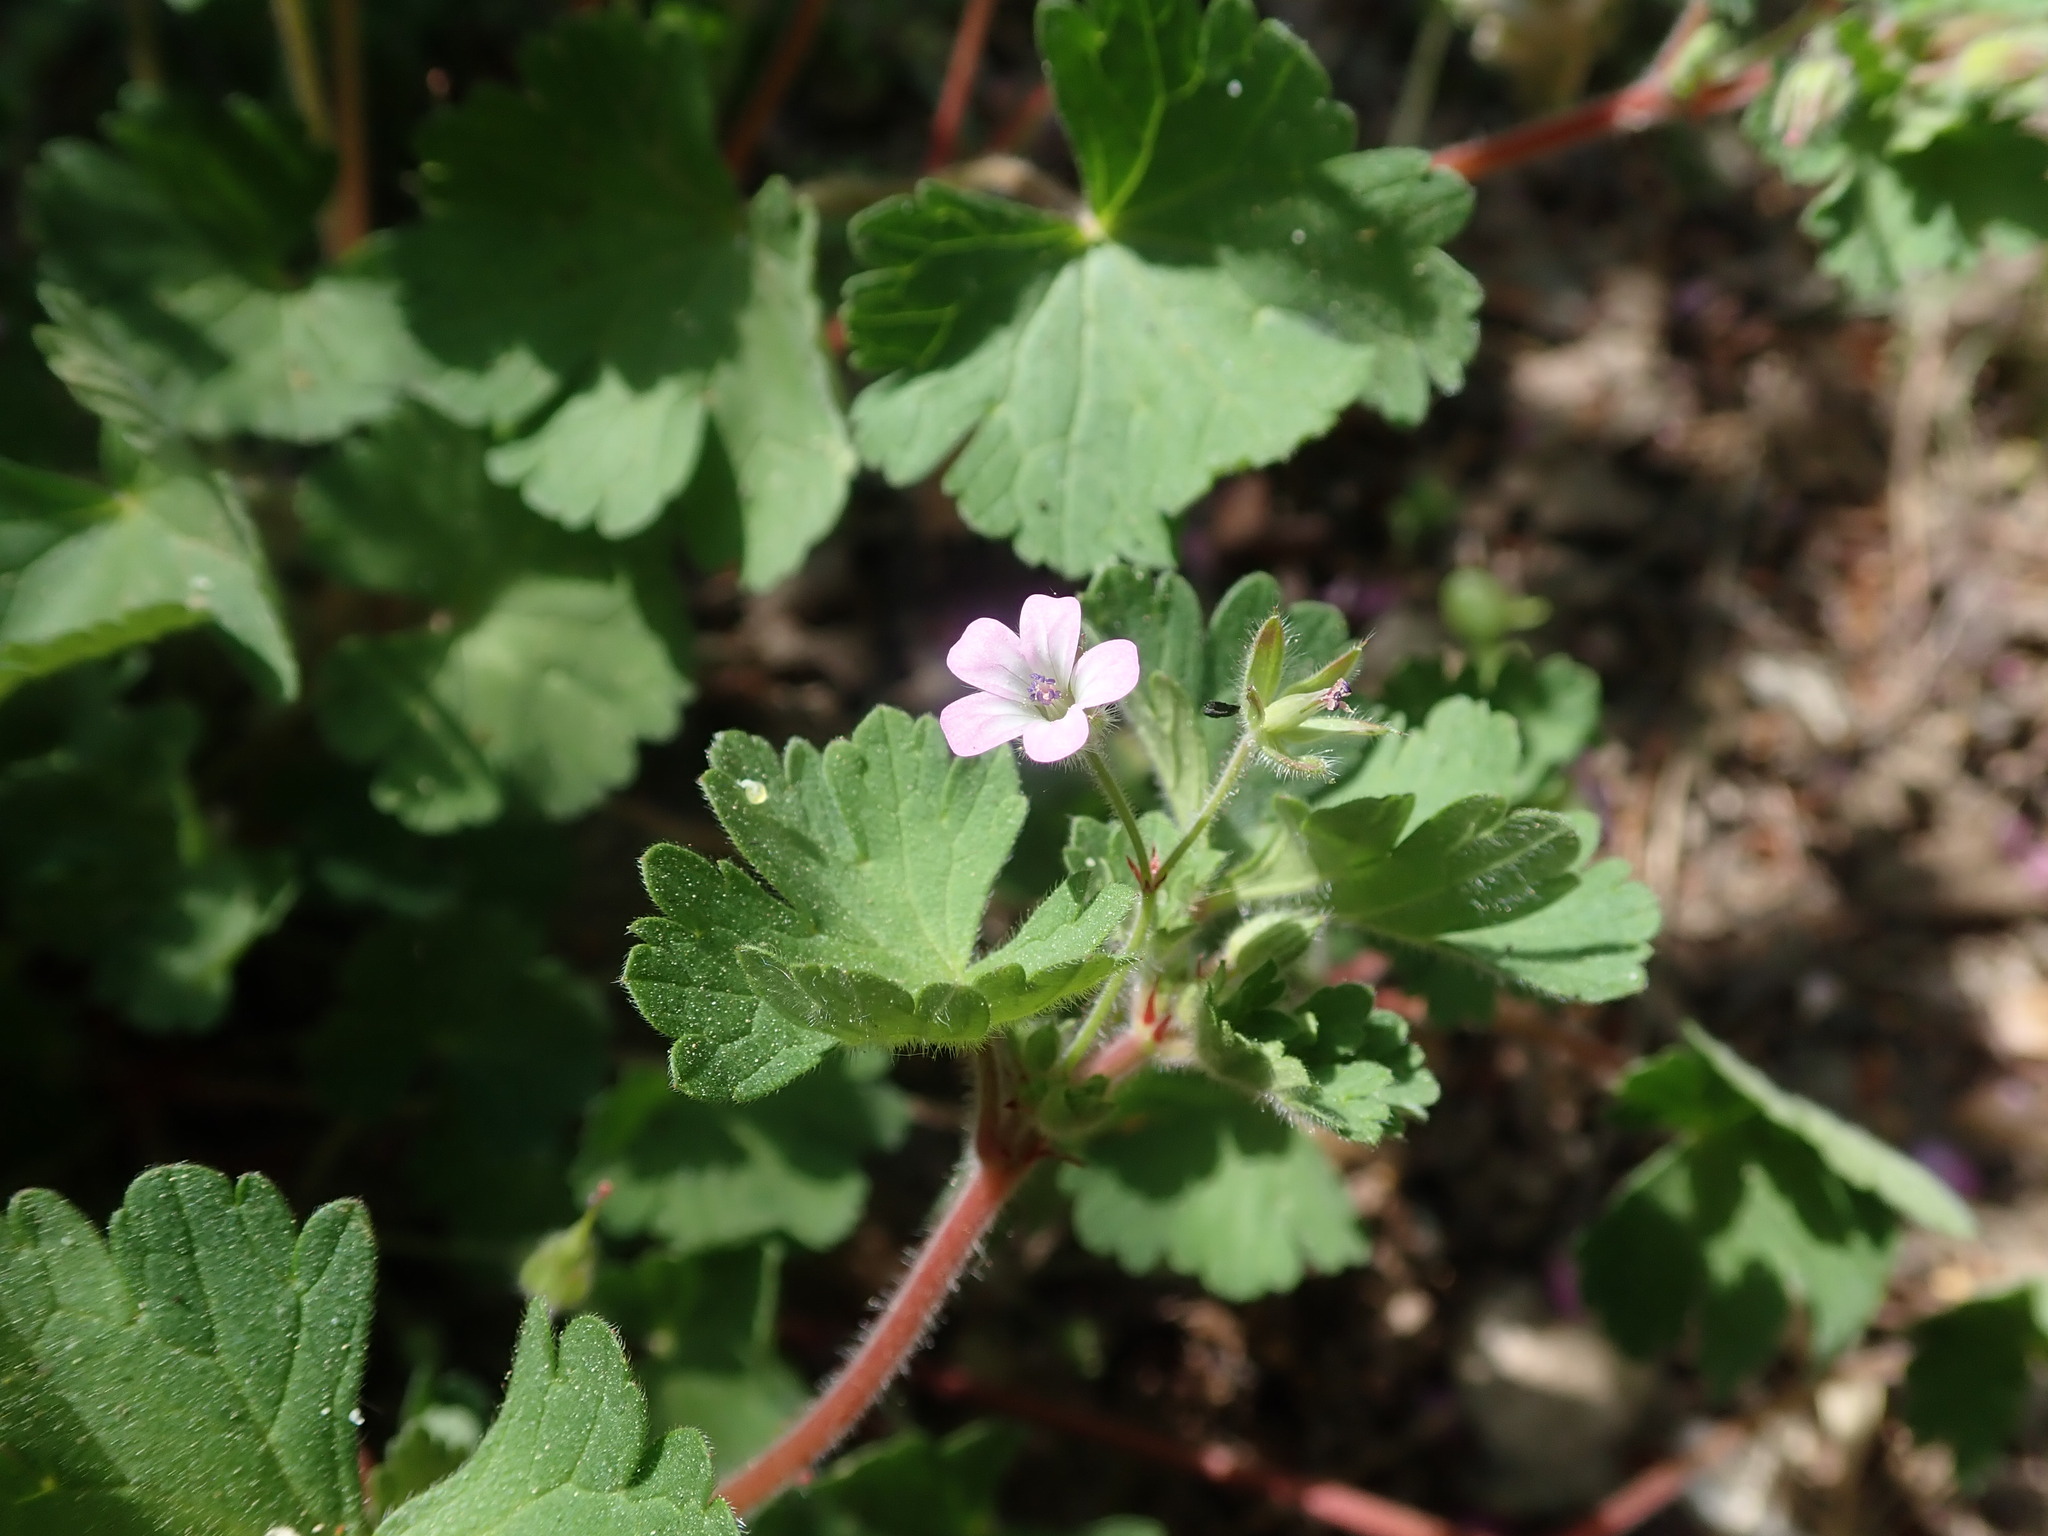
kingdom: Plantae
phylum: Tracheophyta
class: Magnoliopsida
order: Geraniales
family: Geraniaceae
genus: Geranium
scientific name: Geranium rotundifolium
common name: Round-leaved crane's-bill
